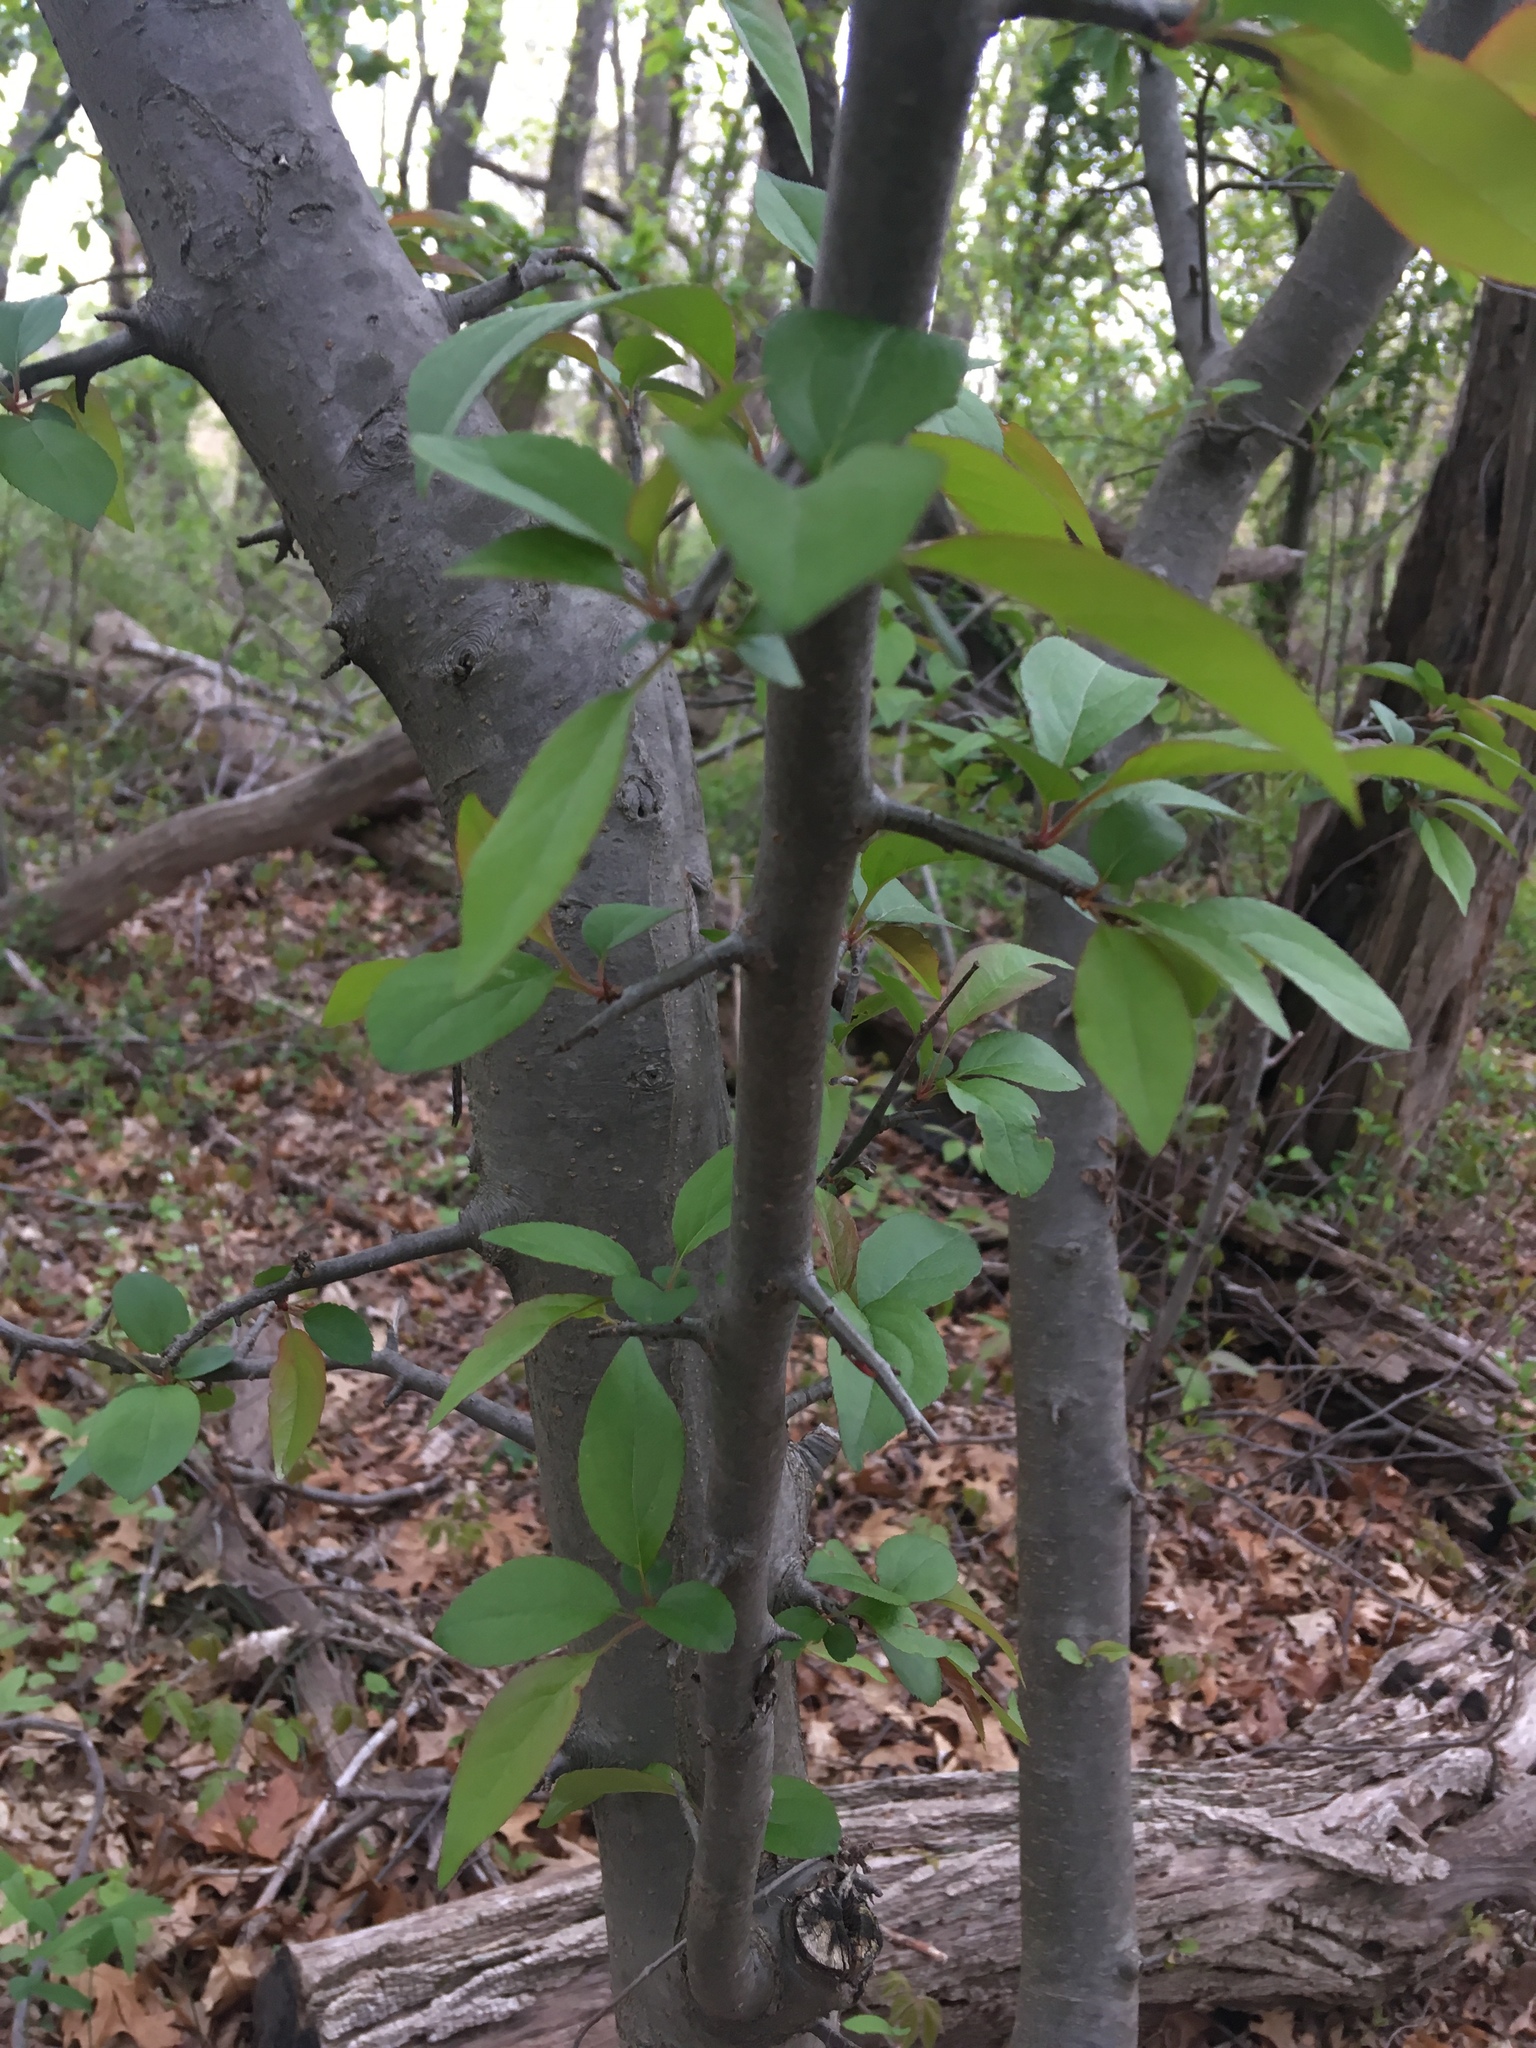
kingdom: Plantae
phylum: Tracheophyta
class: Magnoliopsida
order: Dipsacales
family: Viburnaceae
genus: Viburnum
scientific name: Viburnum prunifolium
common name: Black haw
